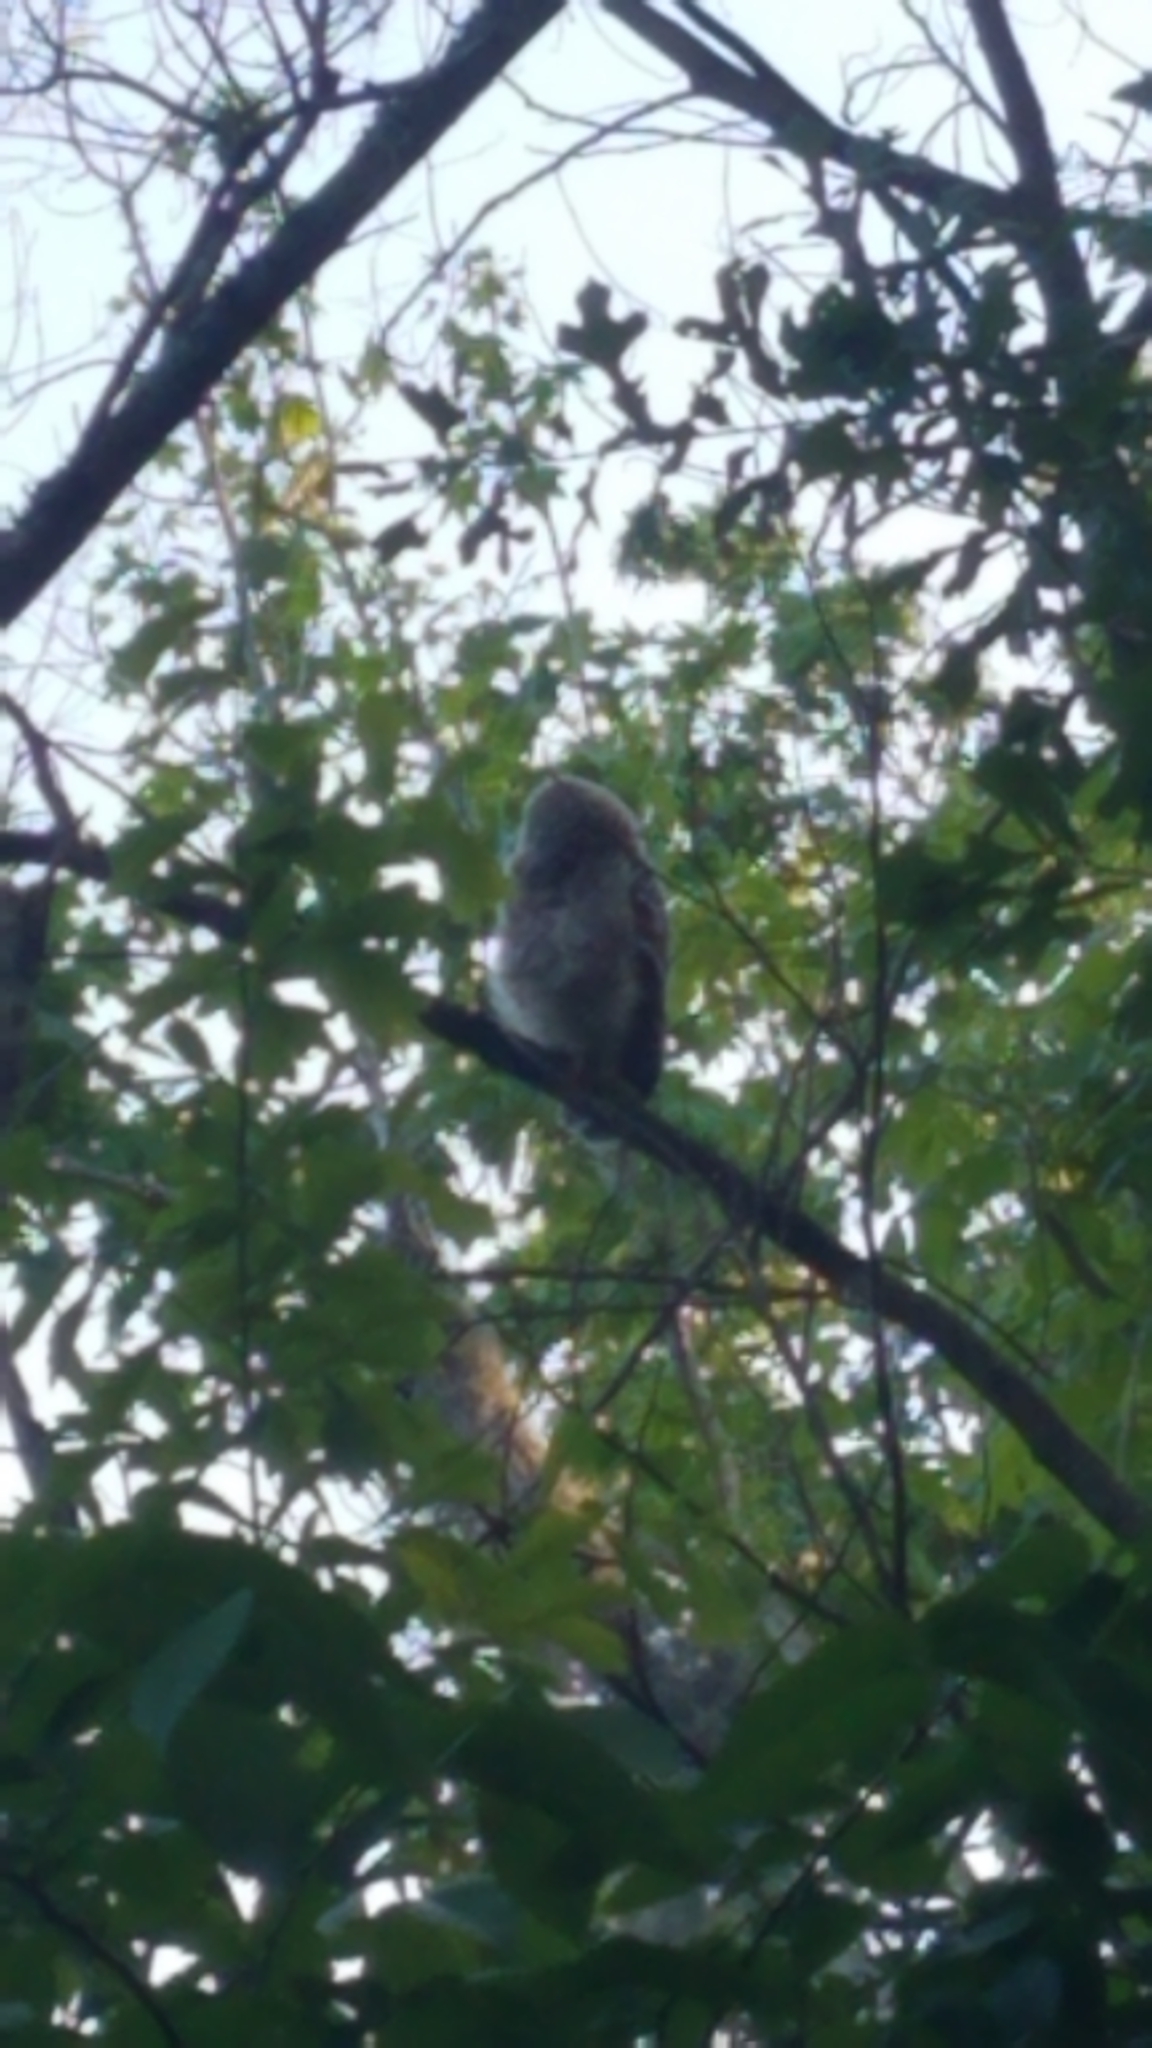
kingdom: Animalia
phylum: Chordata
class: Aves
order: Strigiformes
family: Strigidae
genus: Strix
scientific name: Strix varia
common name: Barred owl
